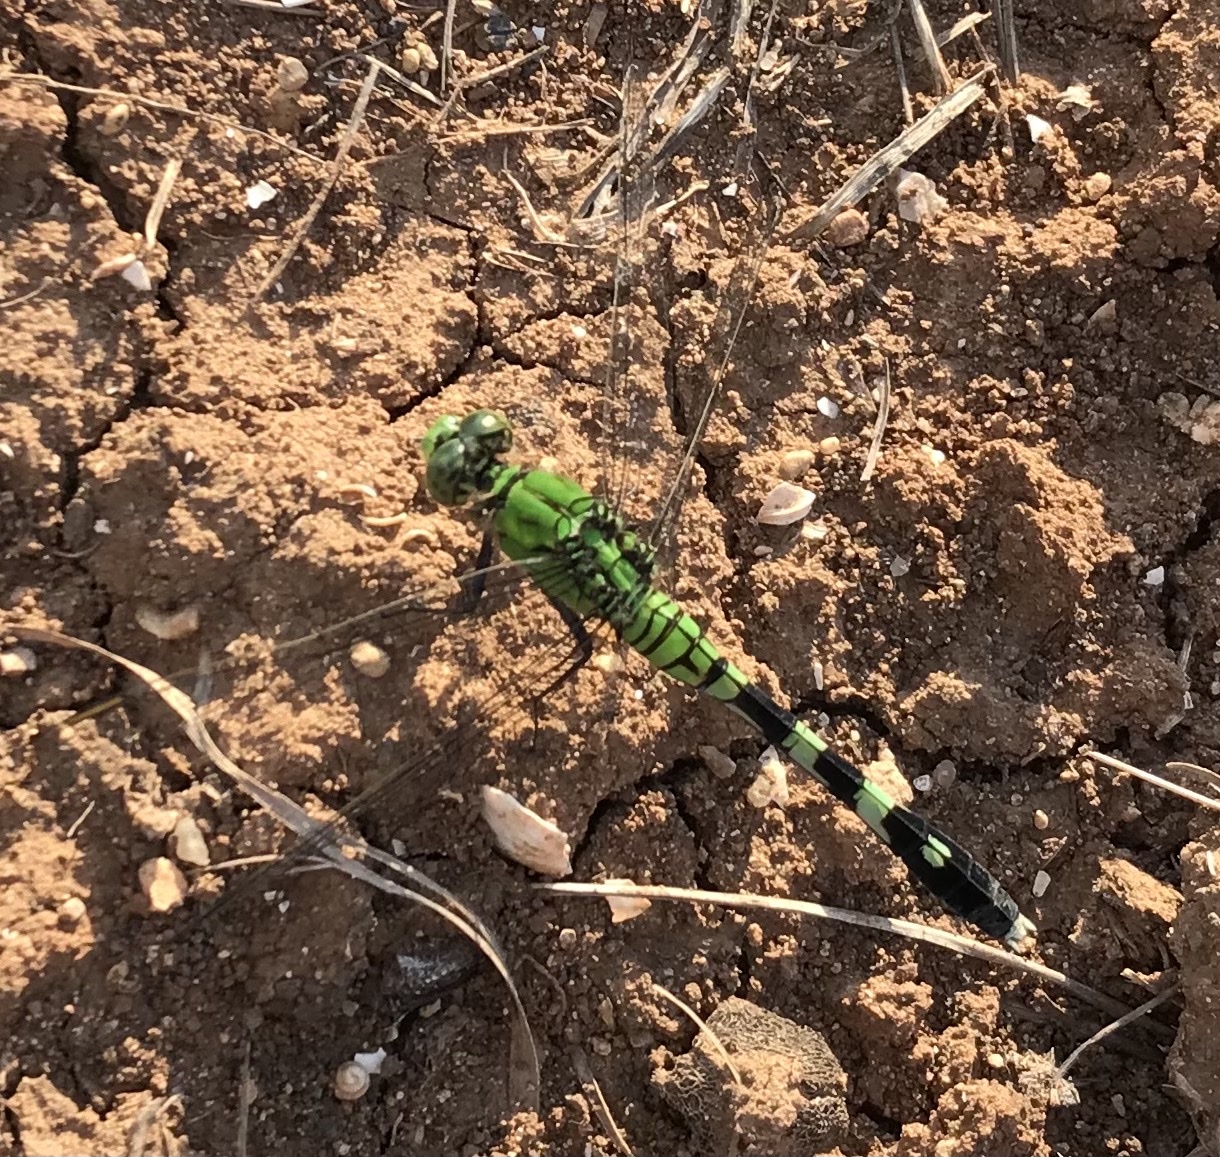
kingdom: Animalia
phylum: Arthropoda
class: Insecta
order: Odonata
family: Libellulidae
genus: Erythemis
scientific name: Erythemis simplicicollis
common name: Eastern pondhawk
